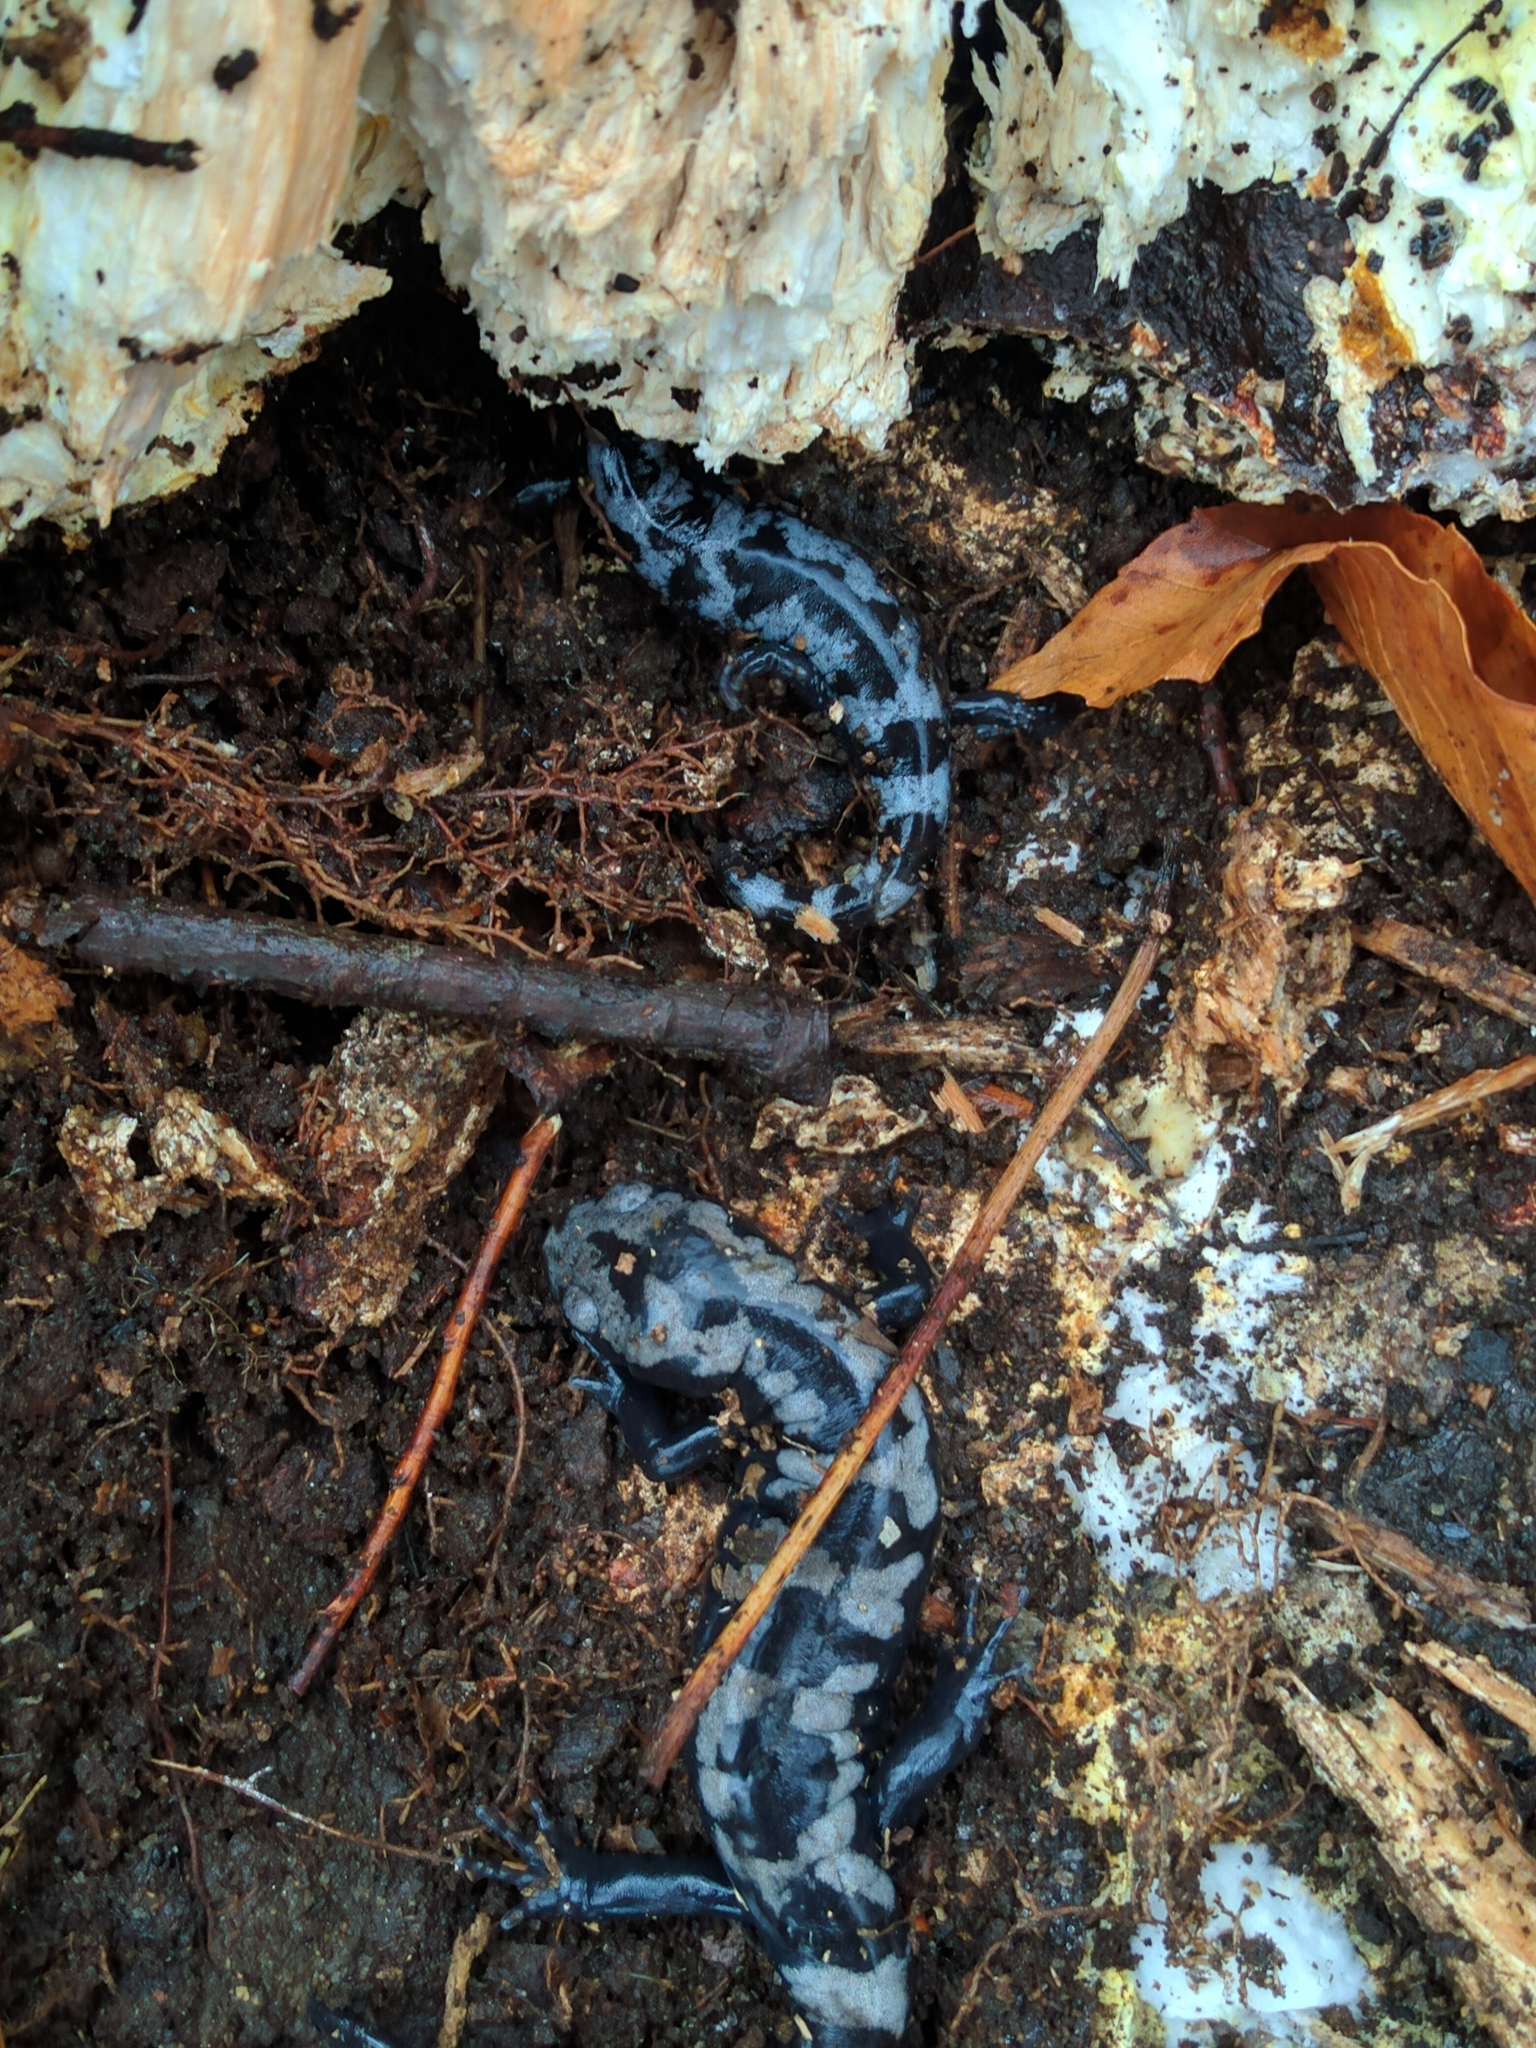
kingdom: Animalia
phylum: Chordata
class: Amphibia
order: Caudata
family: Ambystomatidae
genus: Ambystoma
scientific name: Ambystoma opacum
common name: Marbled salamander
